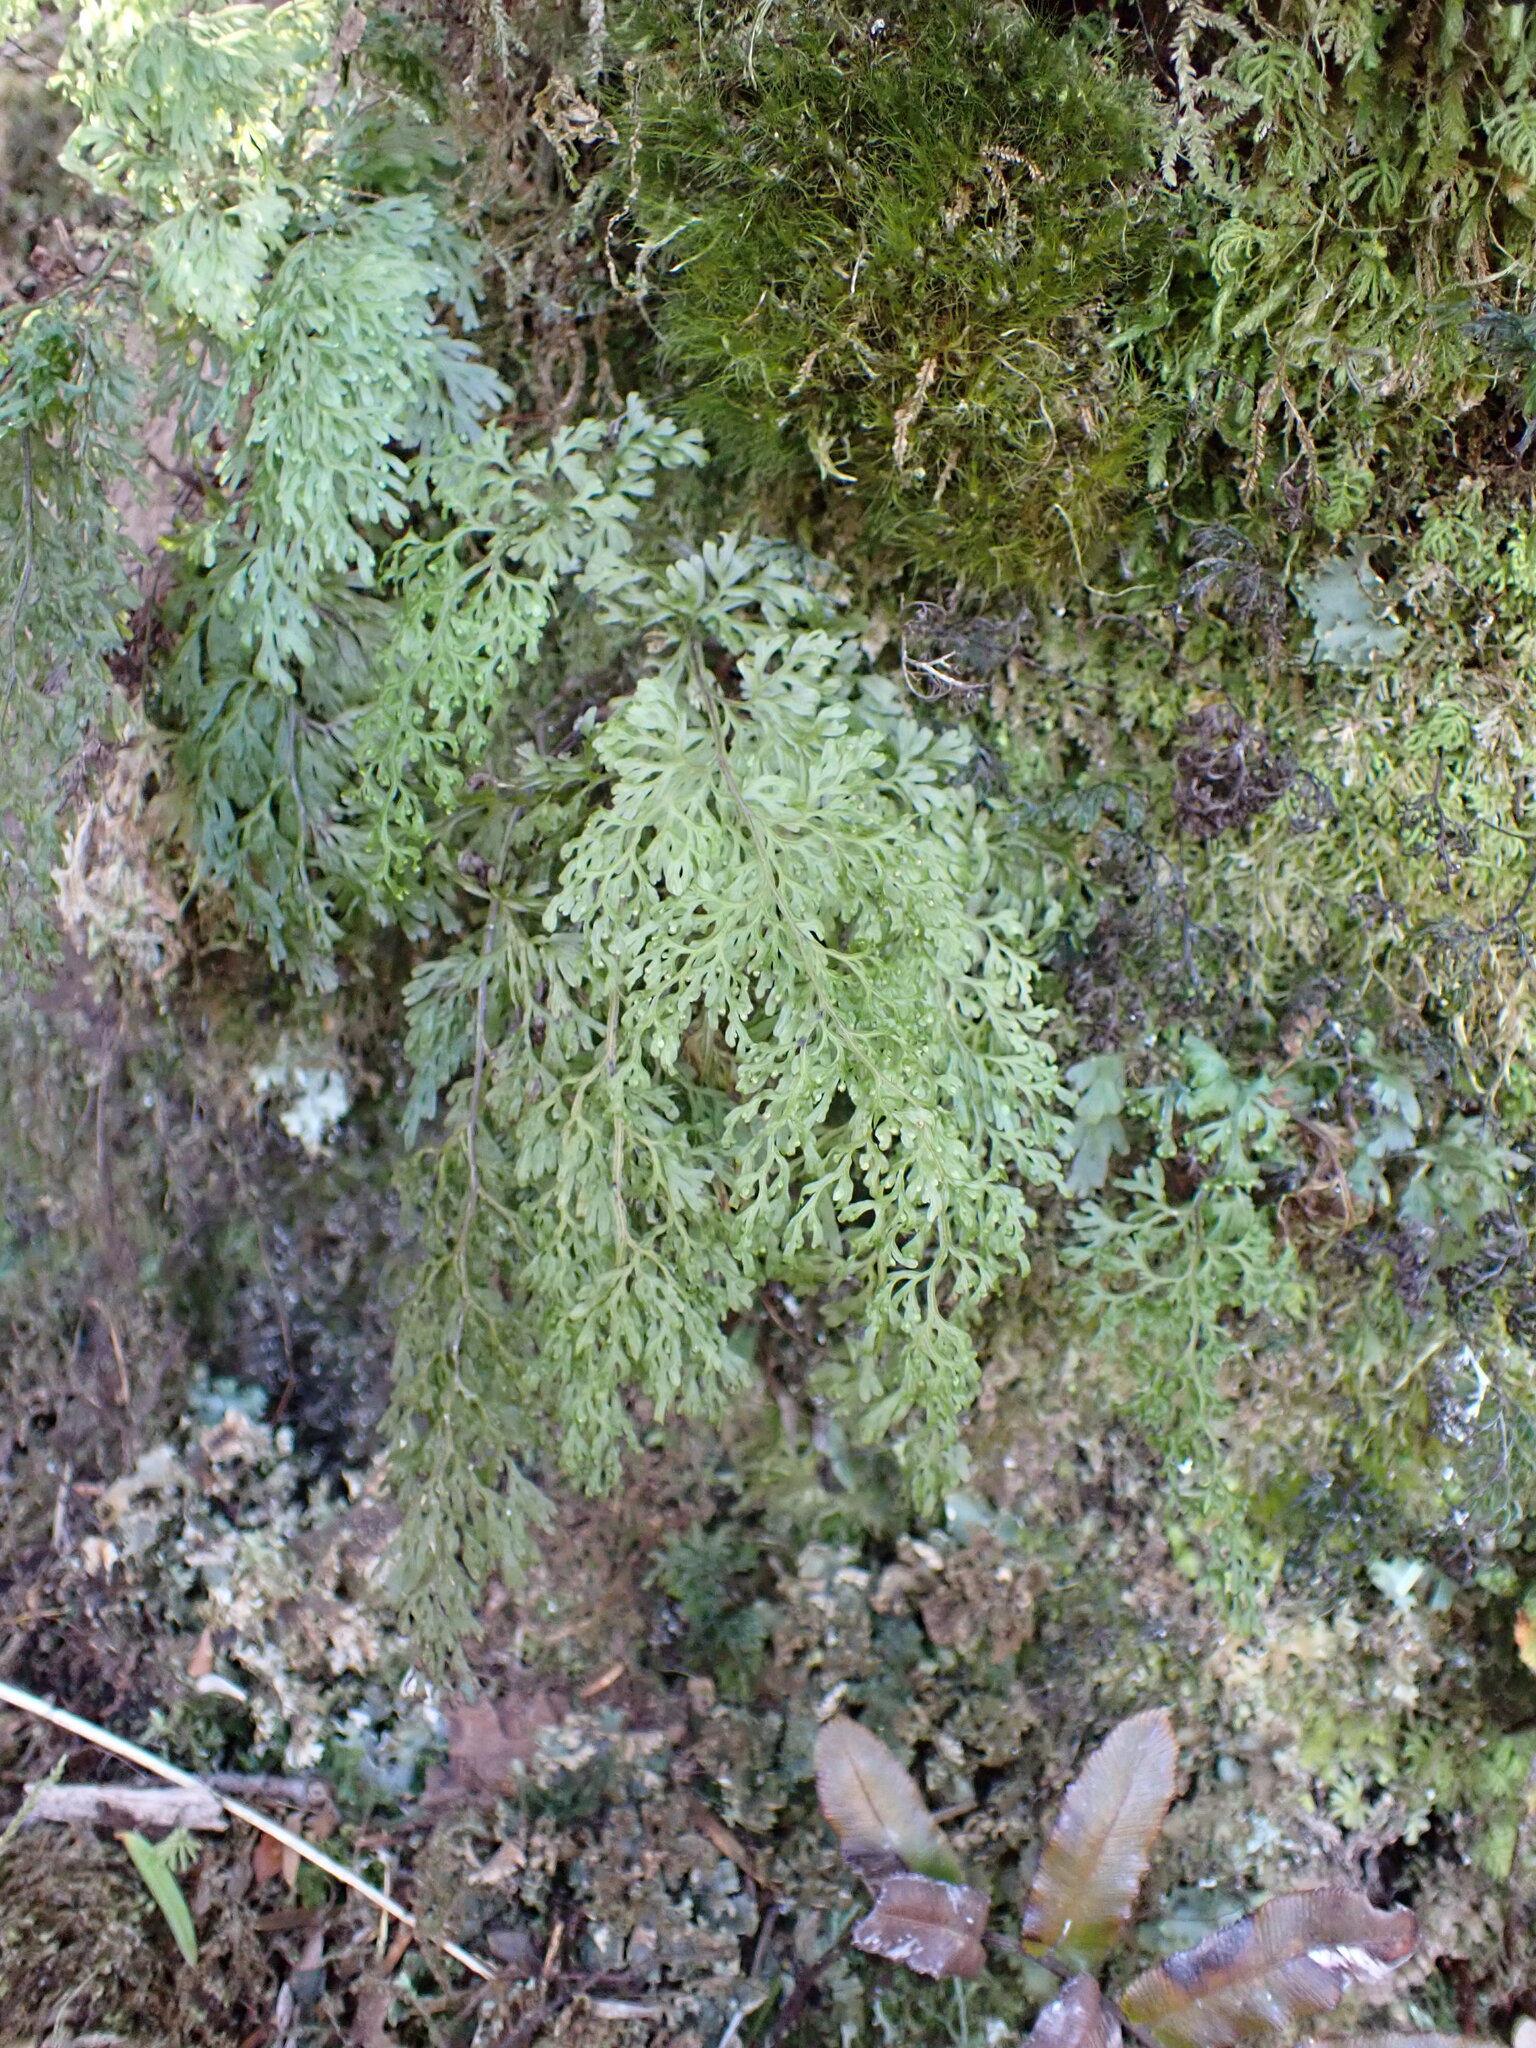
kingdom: Plantae
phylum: Tracheophyta
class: Polypodiopsida
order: Hymenophyllales
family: Hymenophyllaceae
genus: Hymenophyllum
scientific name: Hymenophyllum pulcherrimum
